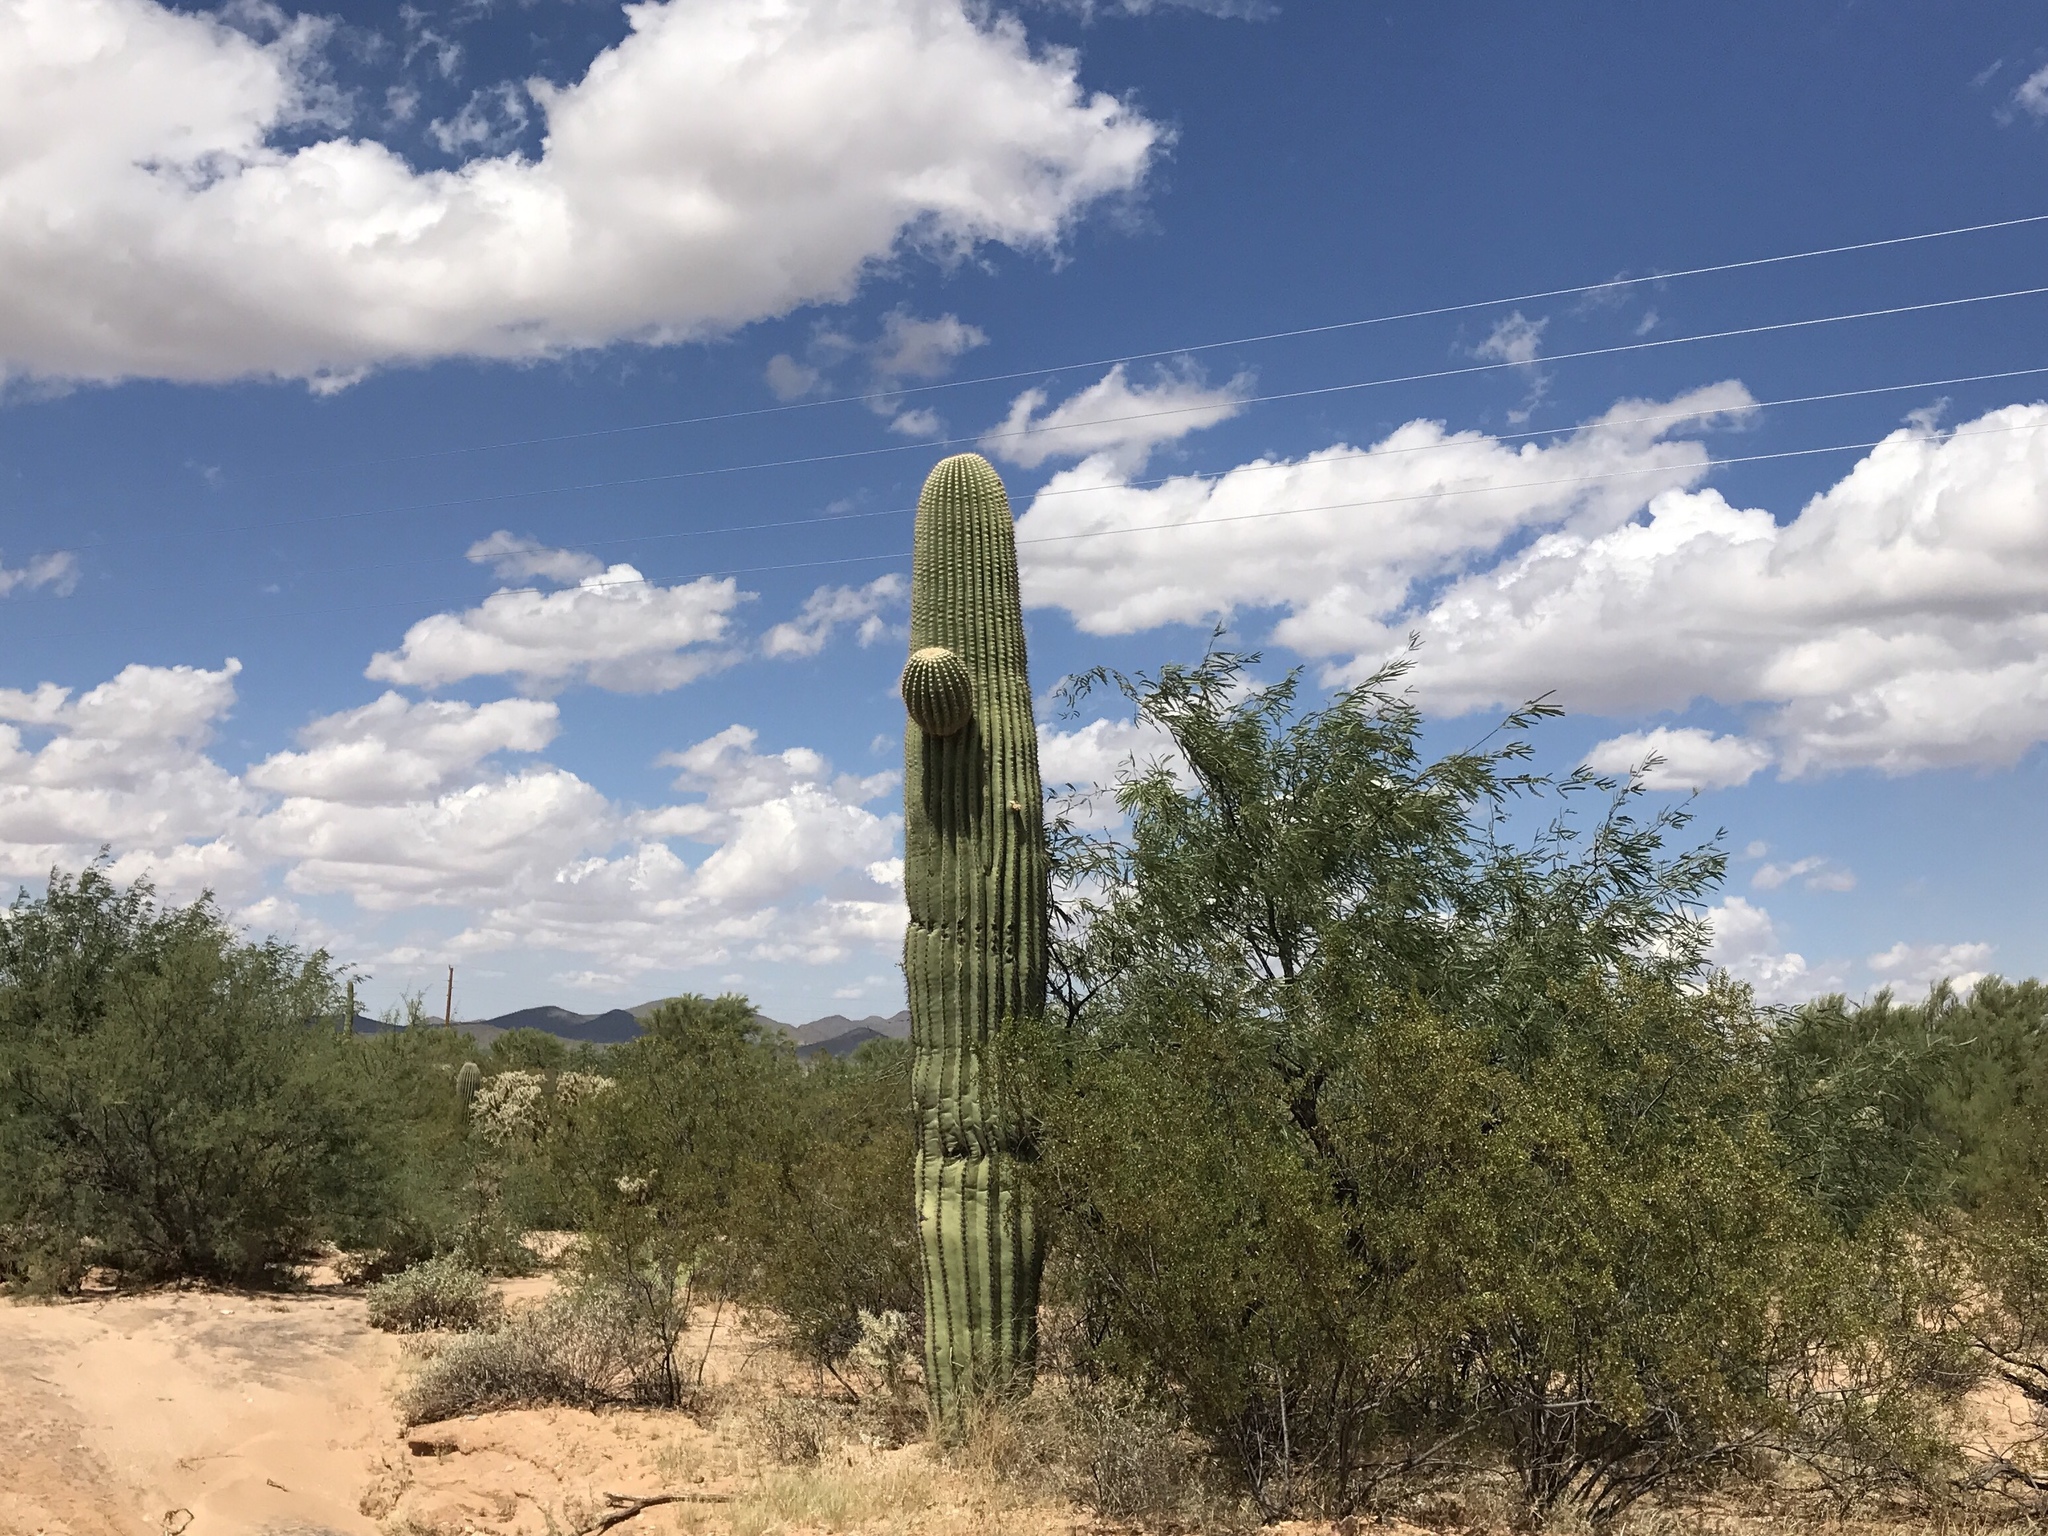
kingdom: Plantae
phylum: Tracheophyta
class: Magnoliopsida
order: Caryophyllales
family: Cactaceae
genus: Carnegiea
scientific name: Carnegiea gigantea
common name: Saguaro
